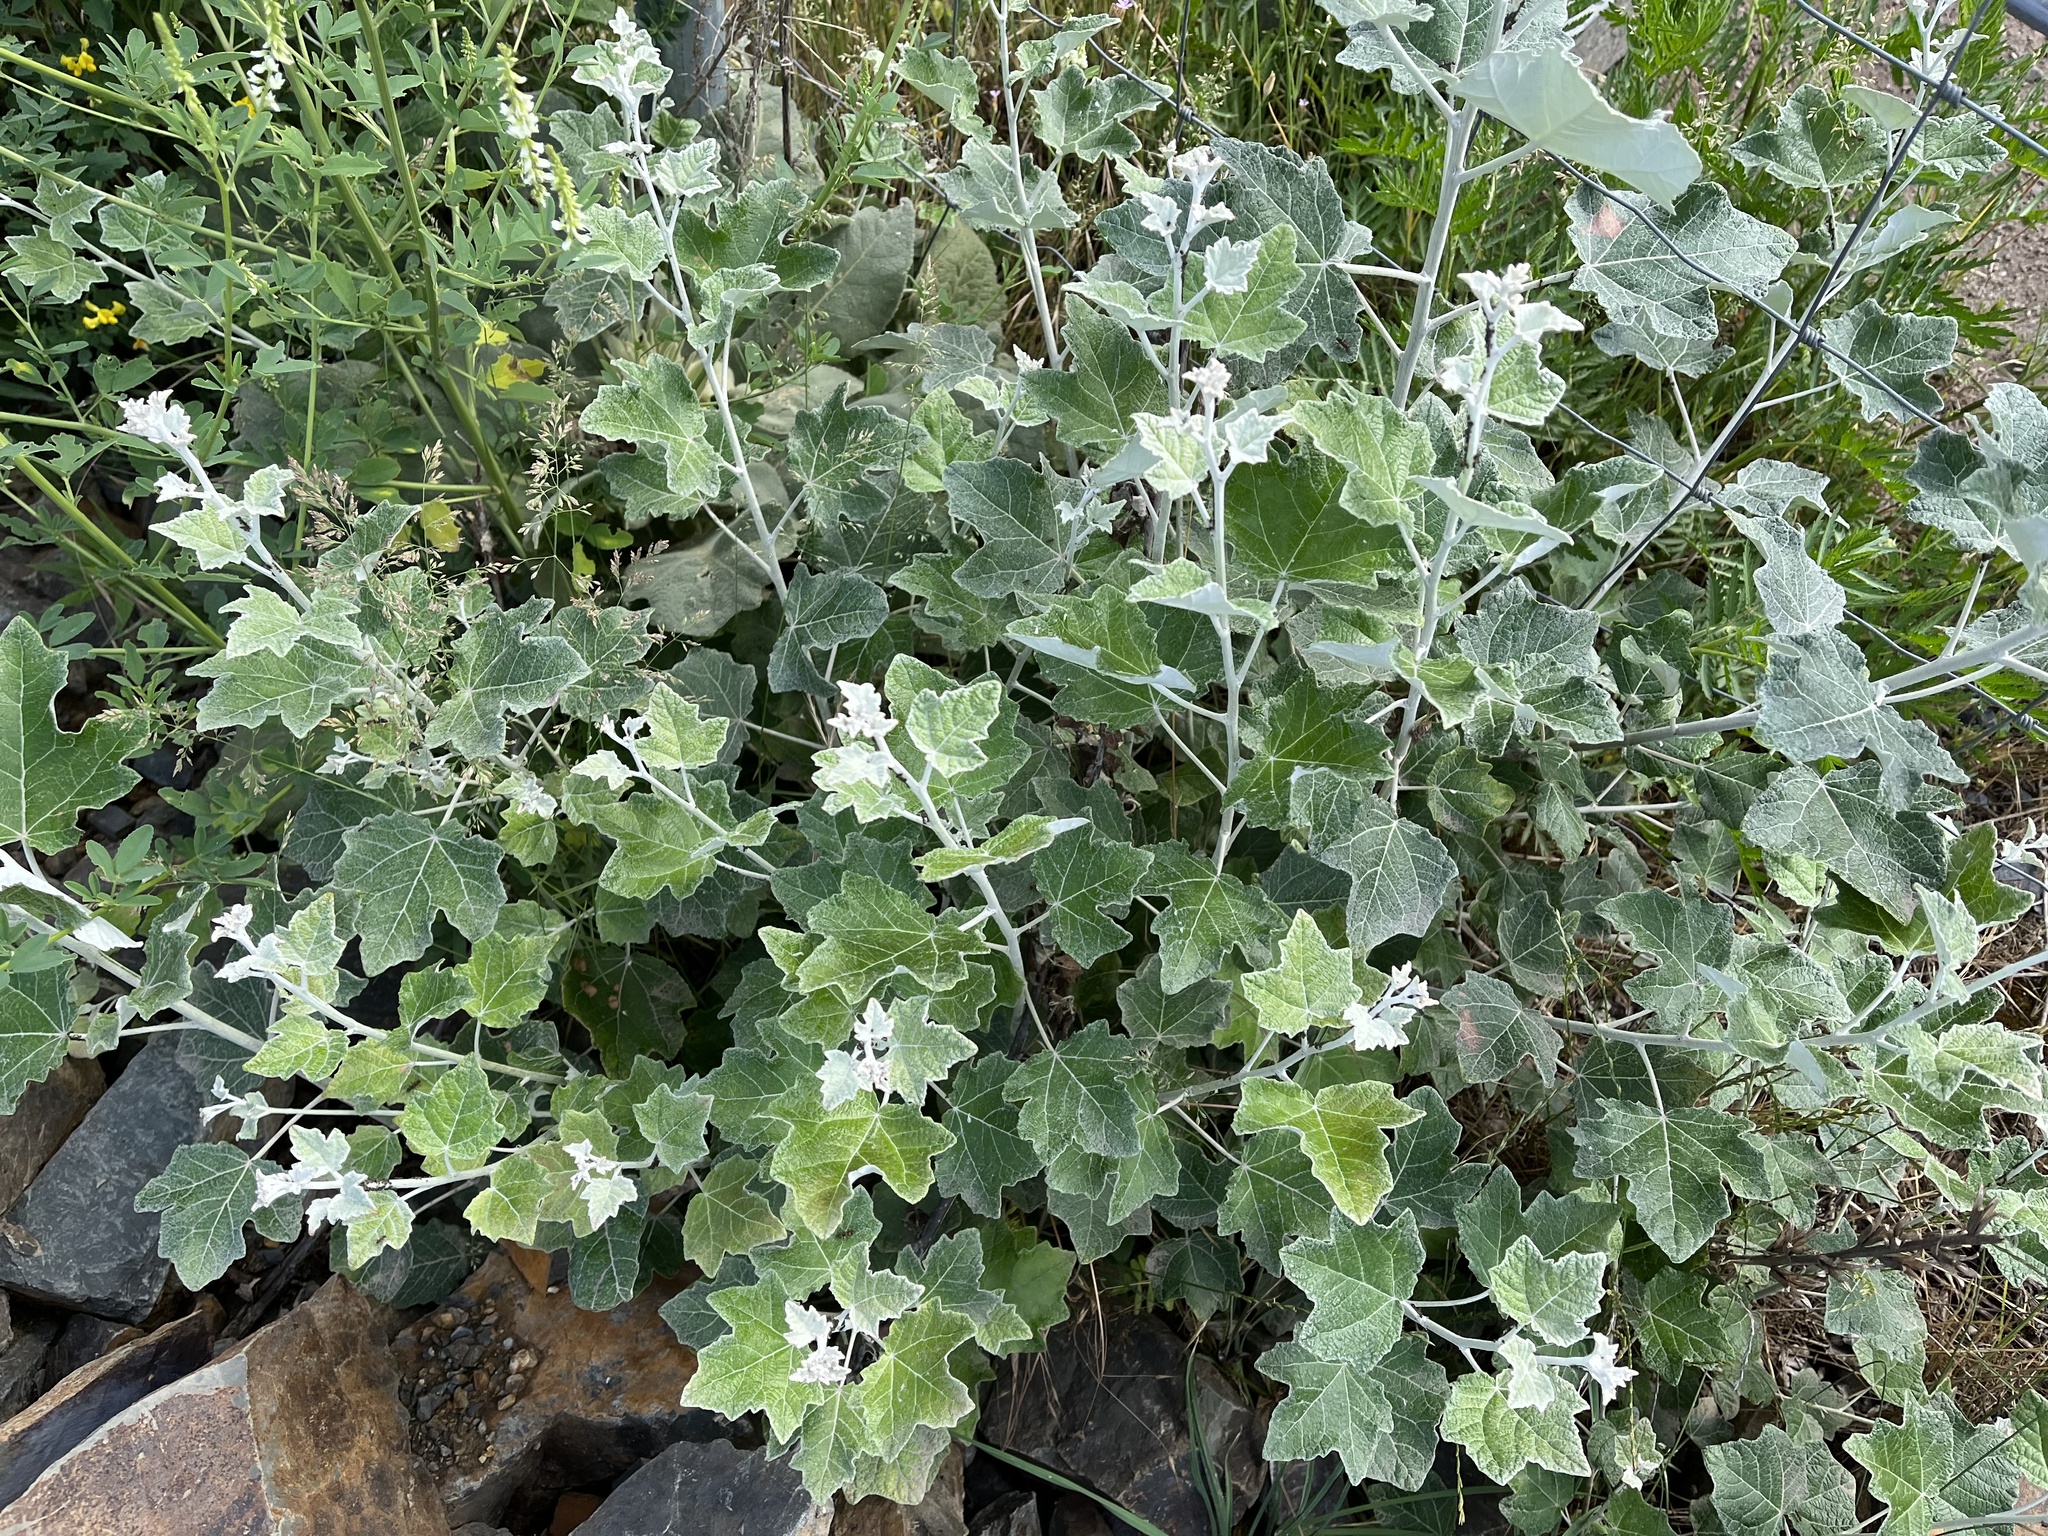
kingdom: Plantae
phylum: Tracheophyta
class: Magnoliopsida
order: Malpighiales
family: Salicaceae
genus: Populus
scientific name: Populus alba
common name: White poplar
